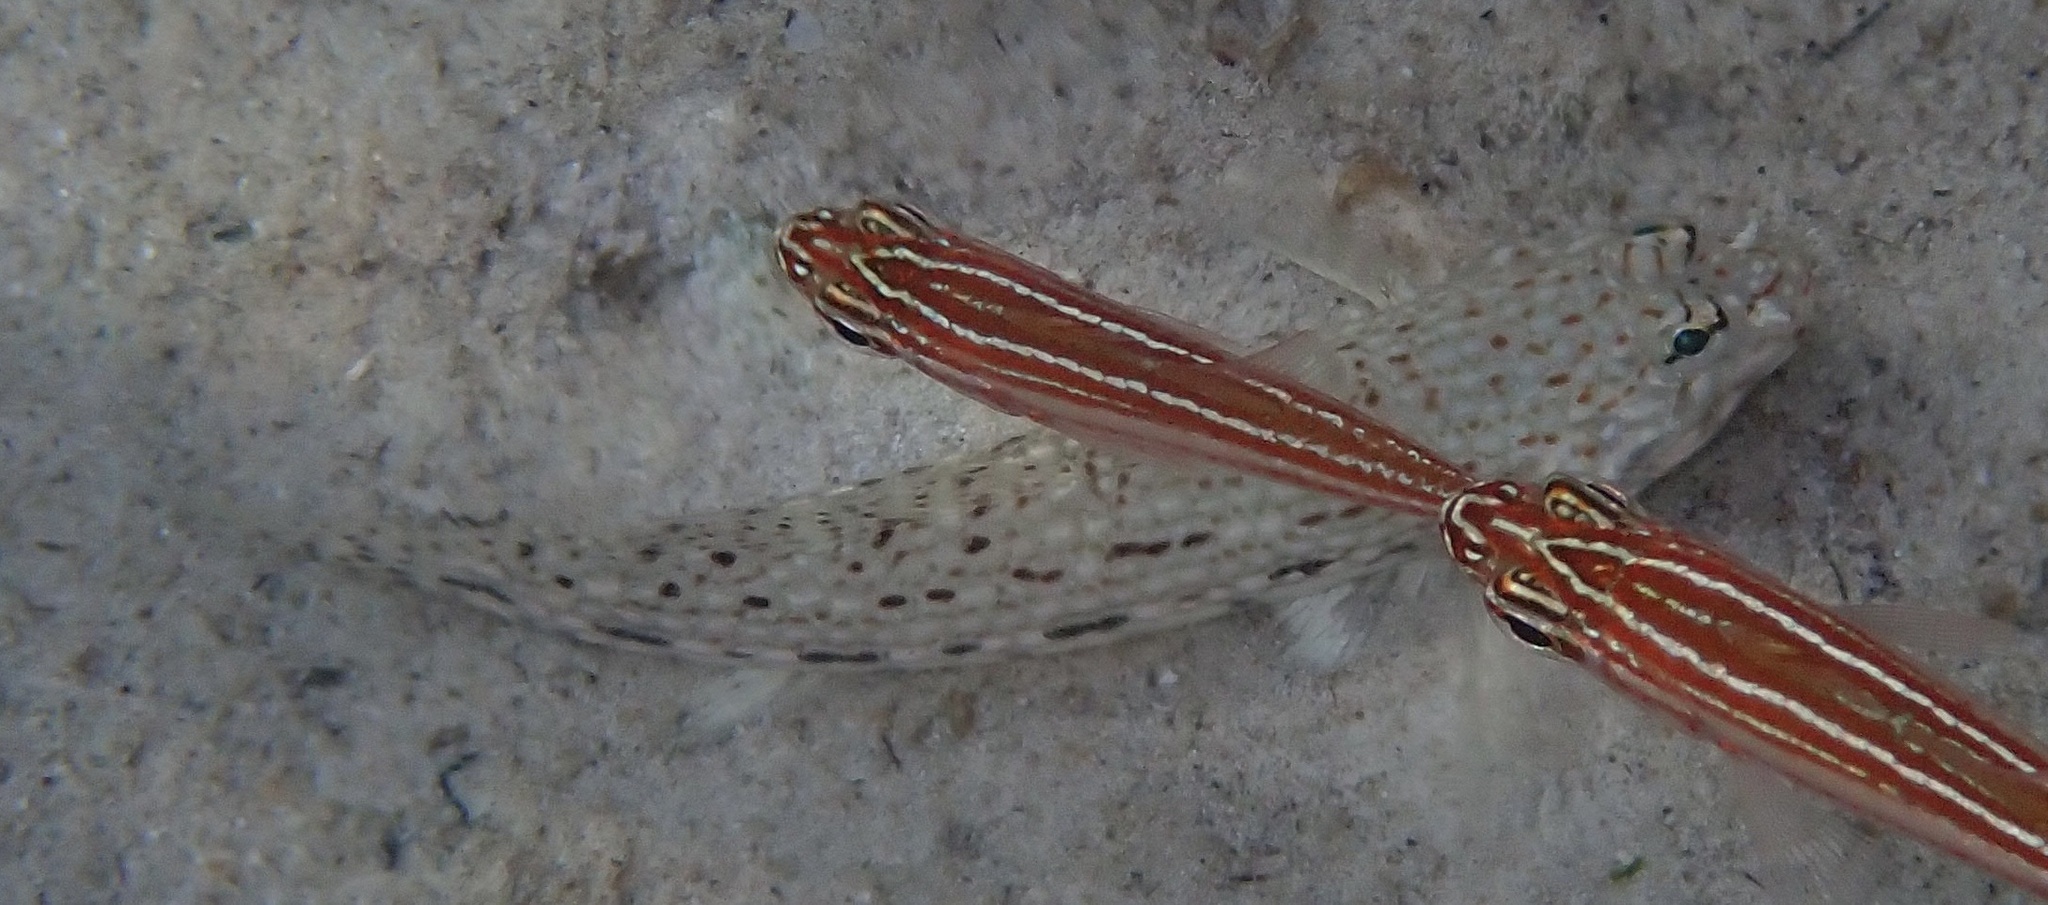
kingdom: Animalia
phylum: Chordata
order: Perciformes
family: Gobiidae
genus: Istigobius
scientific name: Istigobius decoratus
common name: Decorated goby
